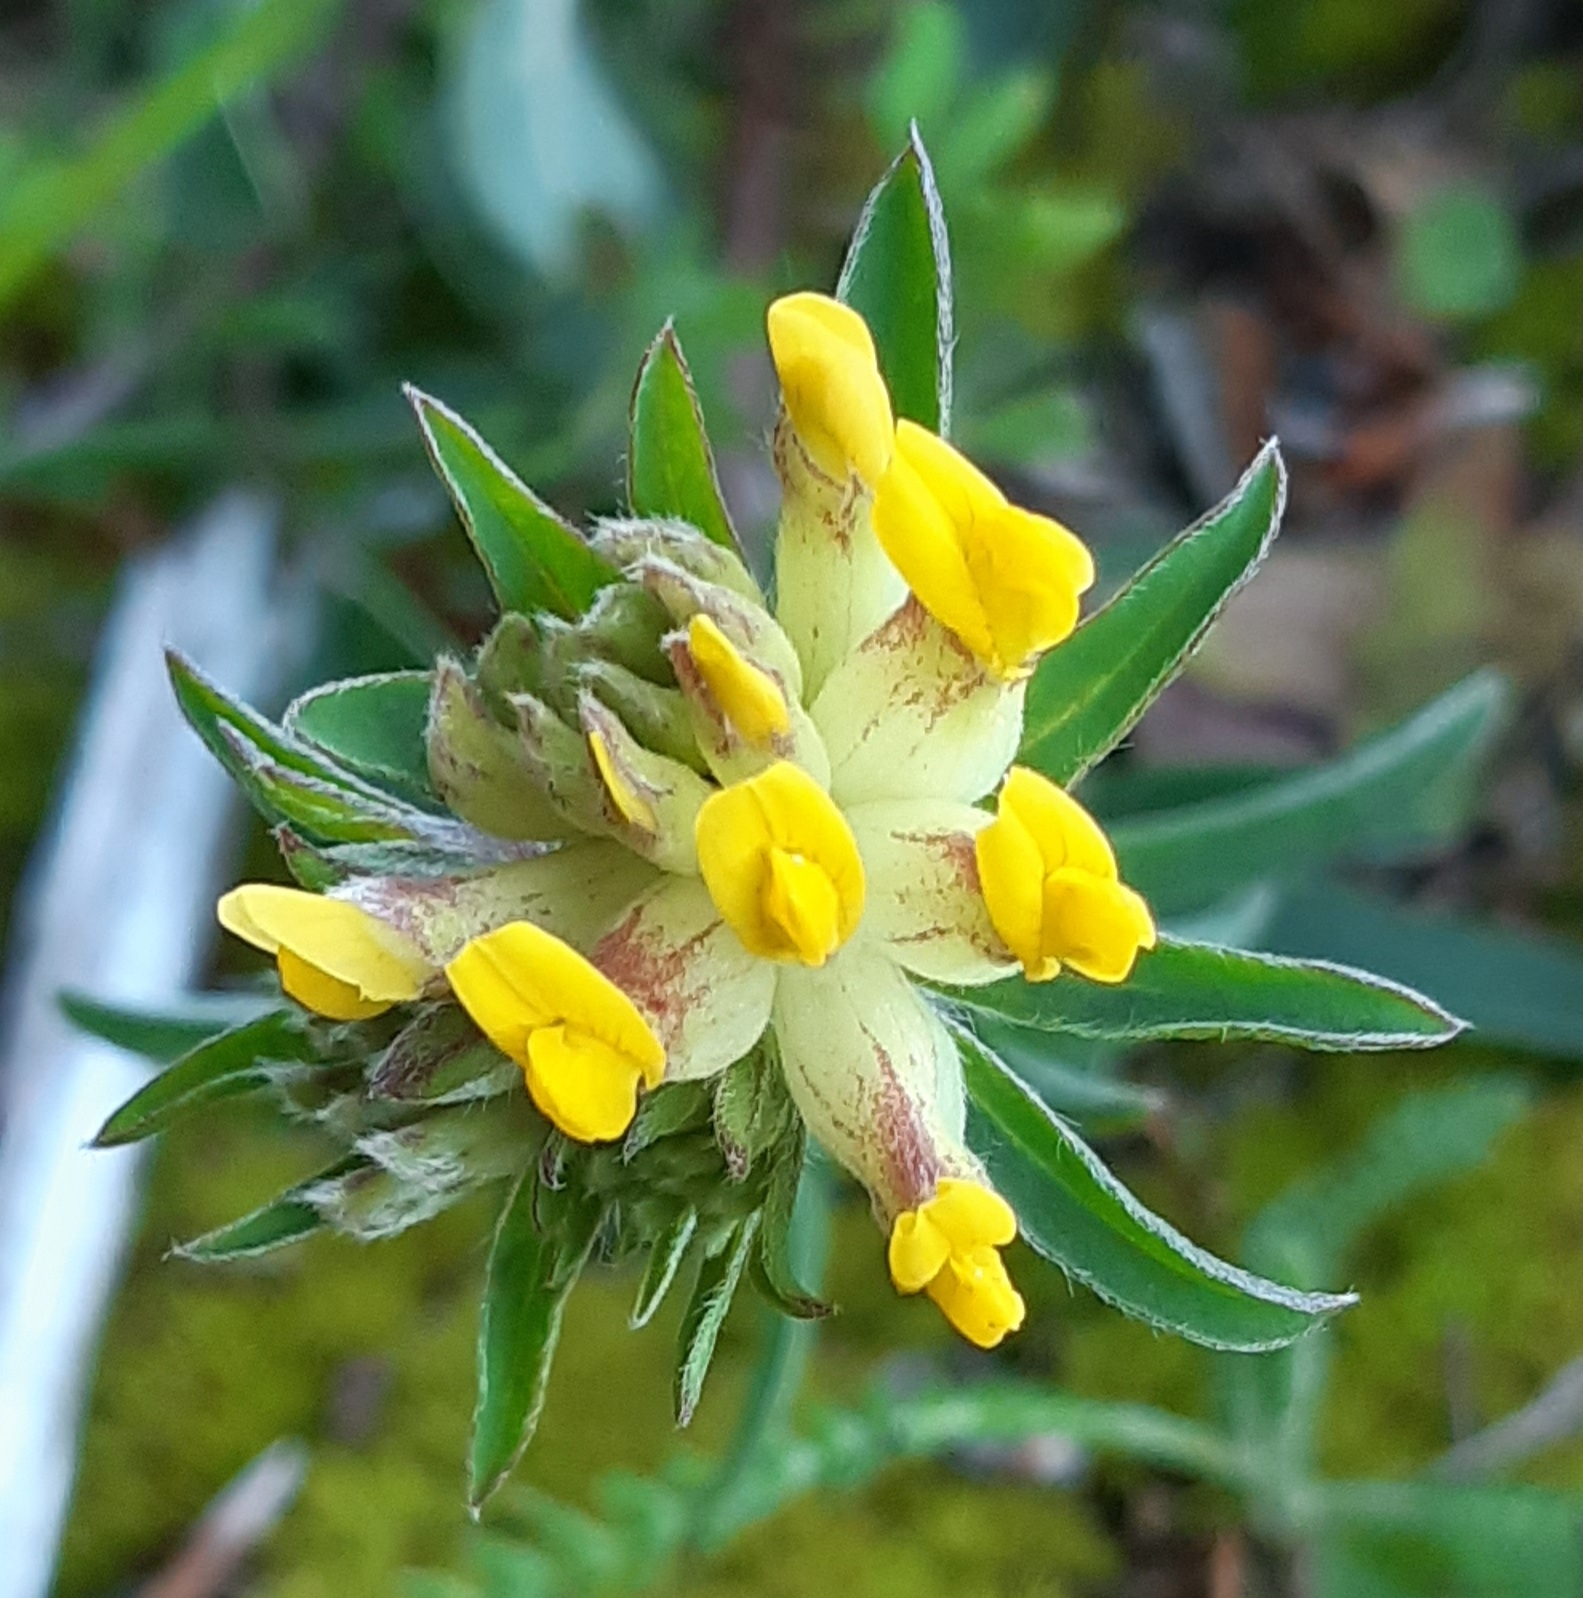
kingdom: Plantae
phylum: Tracheophyta
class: Magnoliopsida
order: Fabales
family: Fabaceae
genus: Anthyllis
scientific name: Anthyllis vulneraria
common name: Kidney vetch
